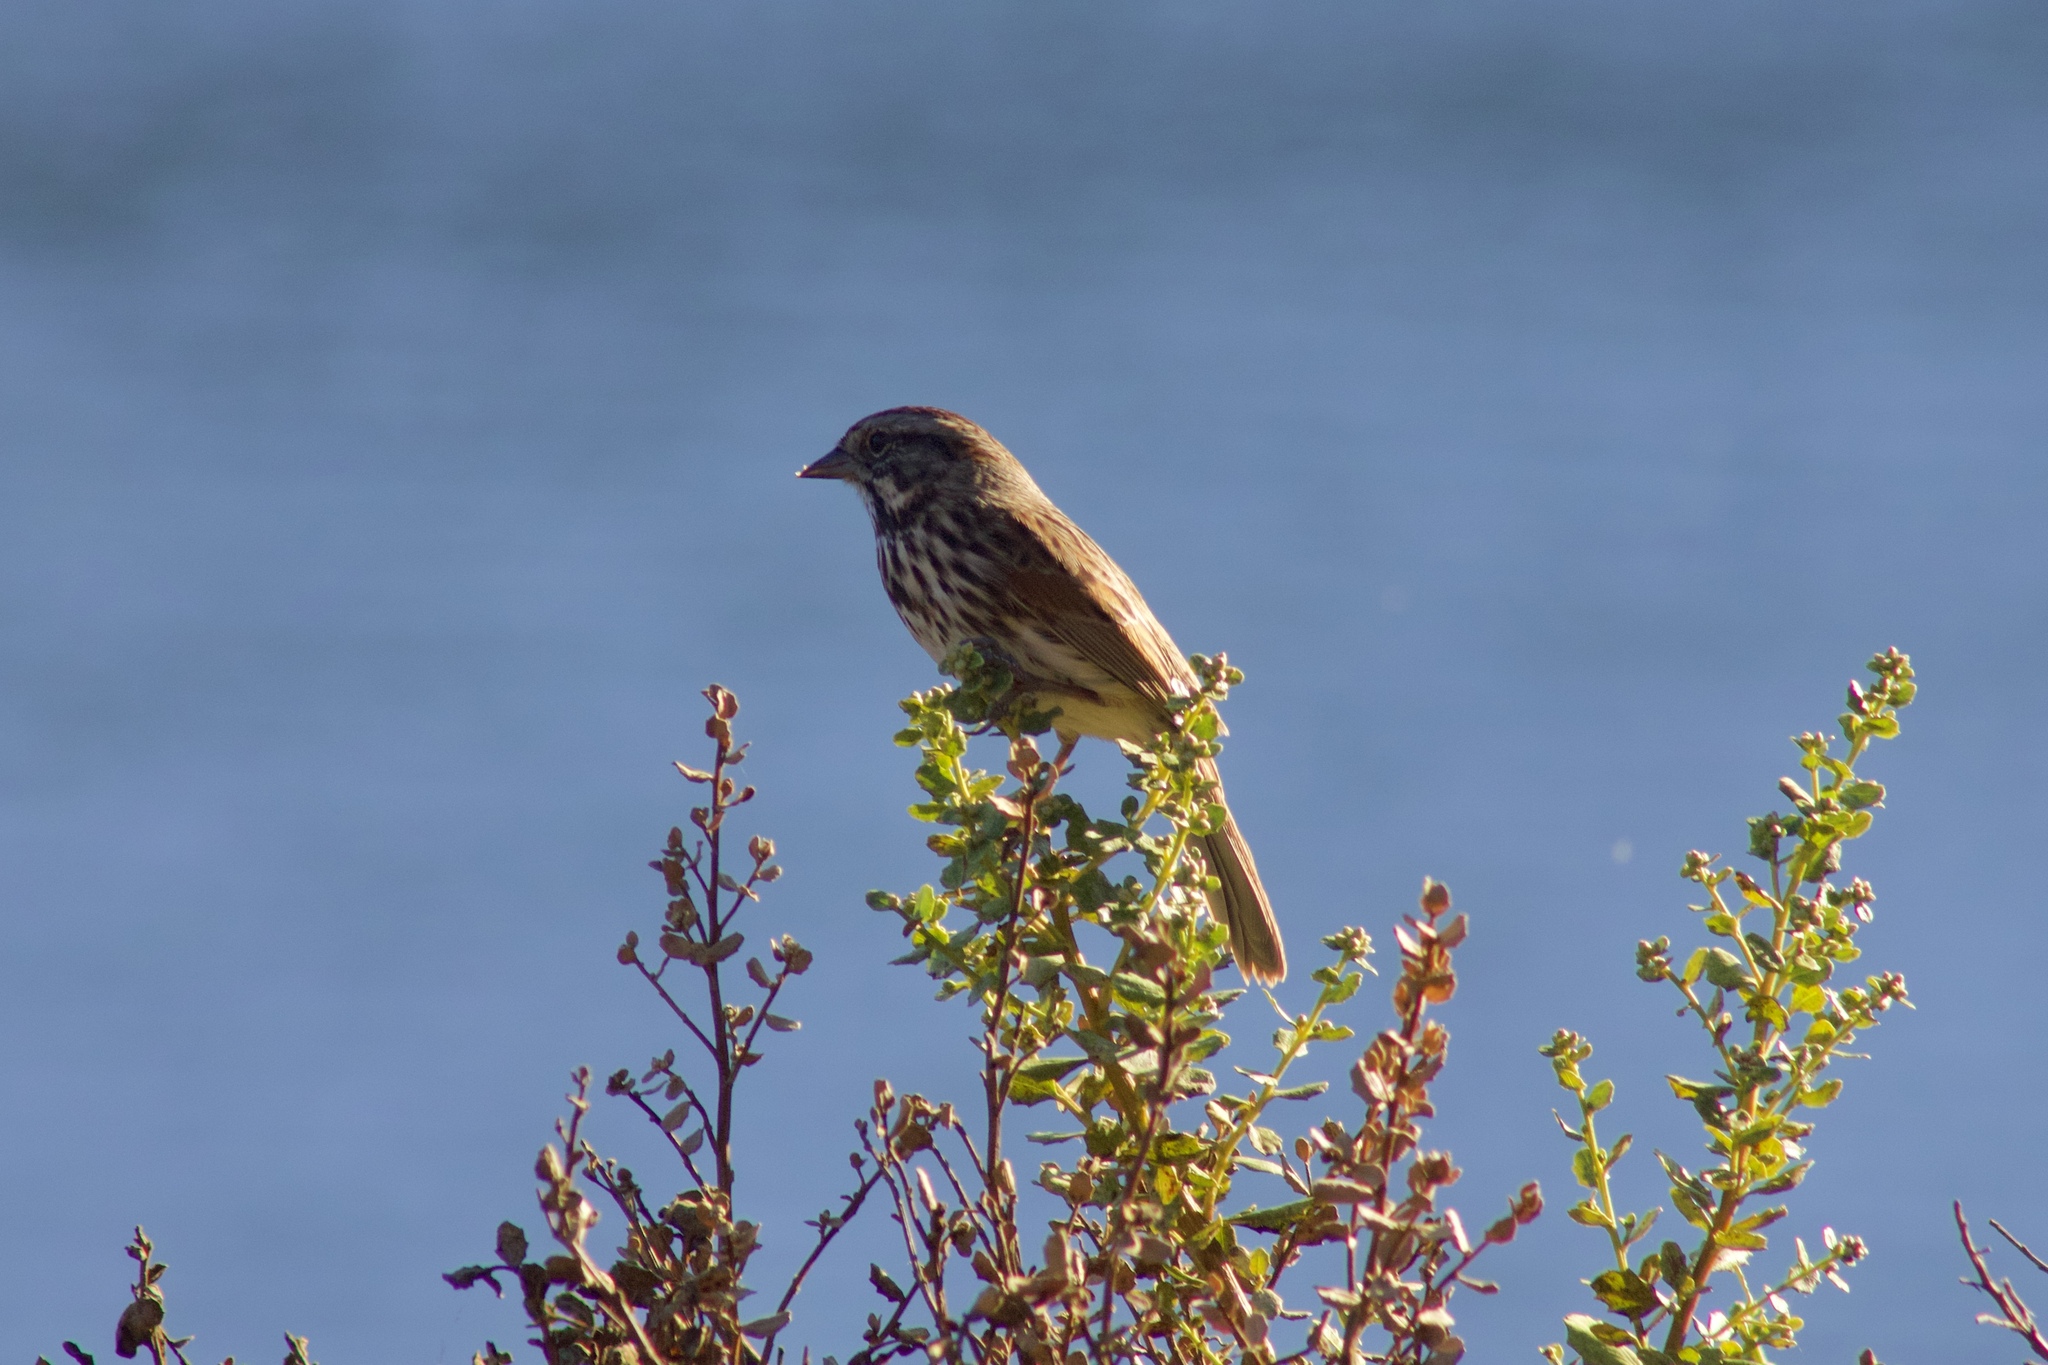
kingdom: Animalia
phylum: Chordata
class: Aves
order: Passeriformes
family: Passerellidae
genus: Melospiza
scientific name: Melospiza melodia
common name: Song sparrow
